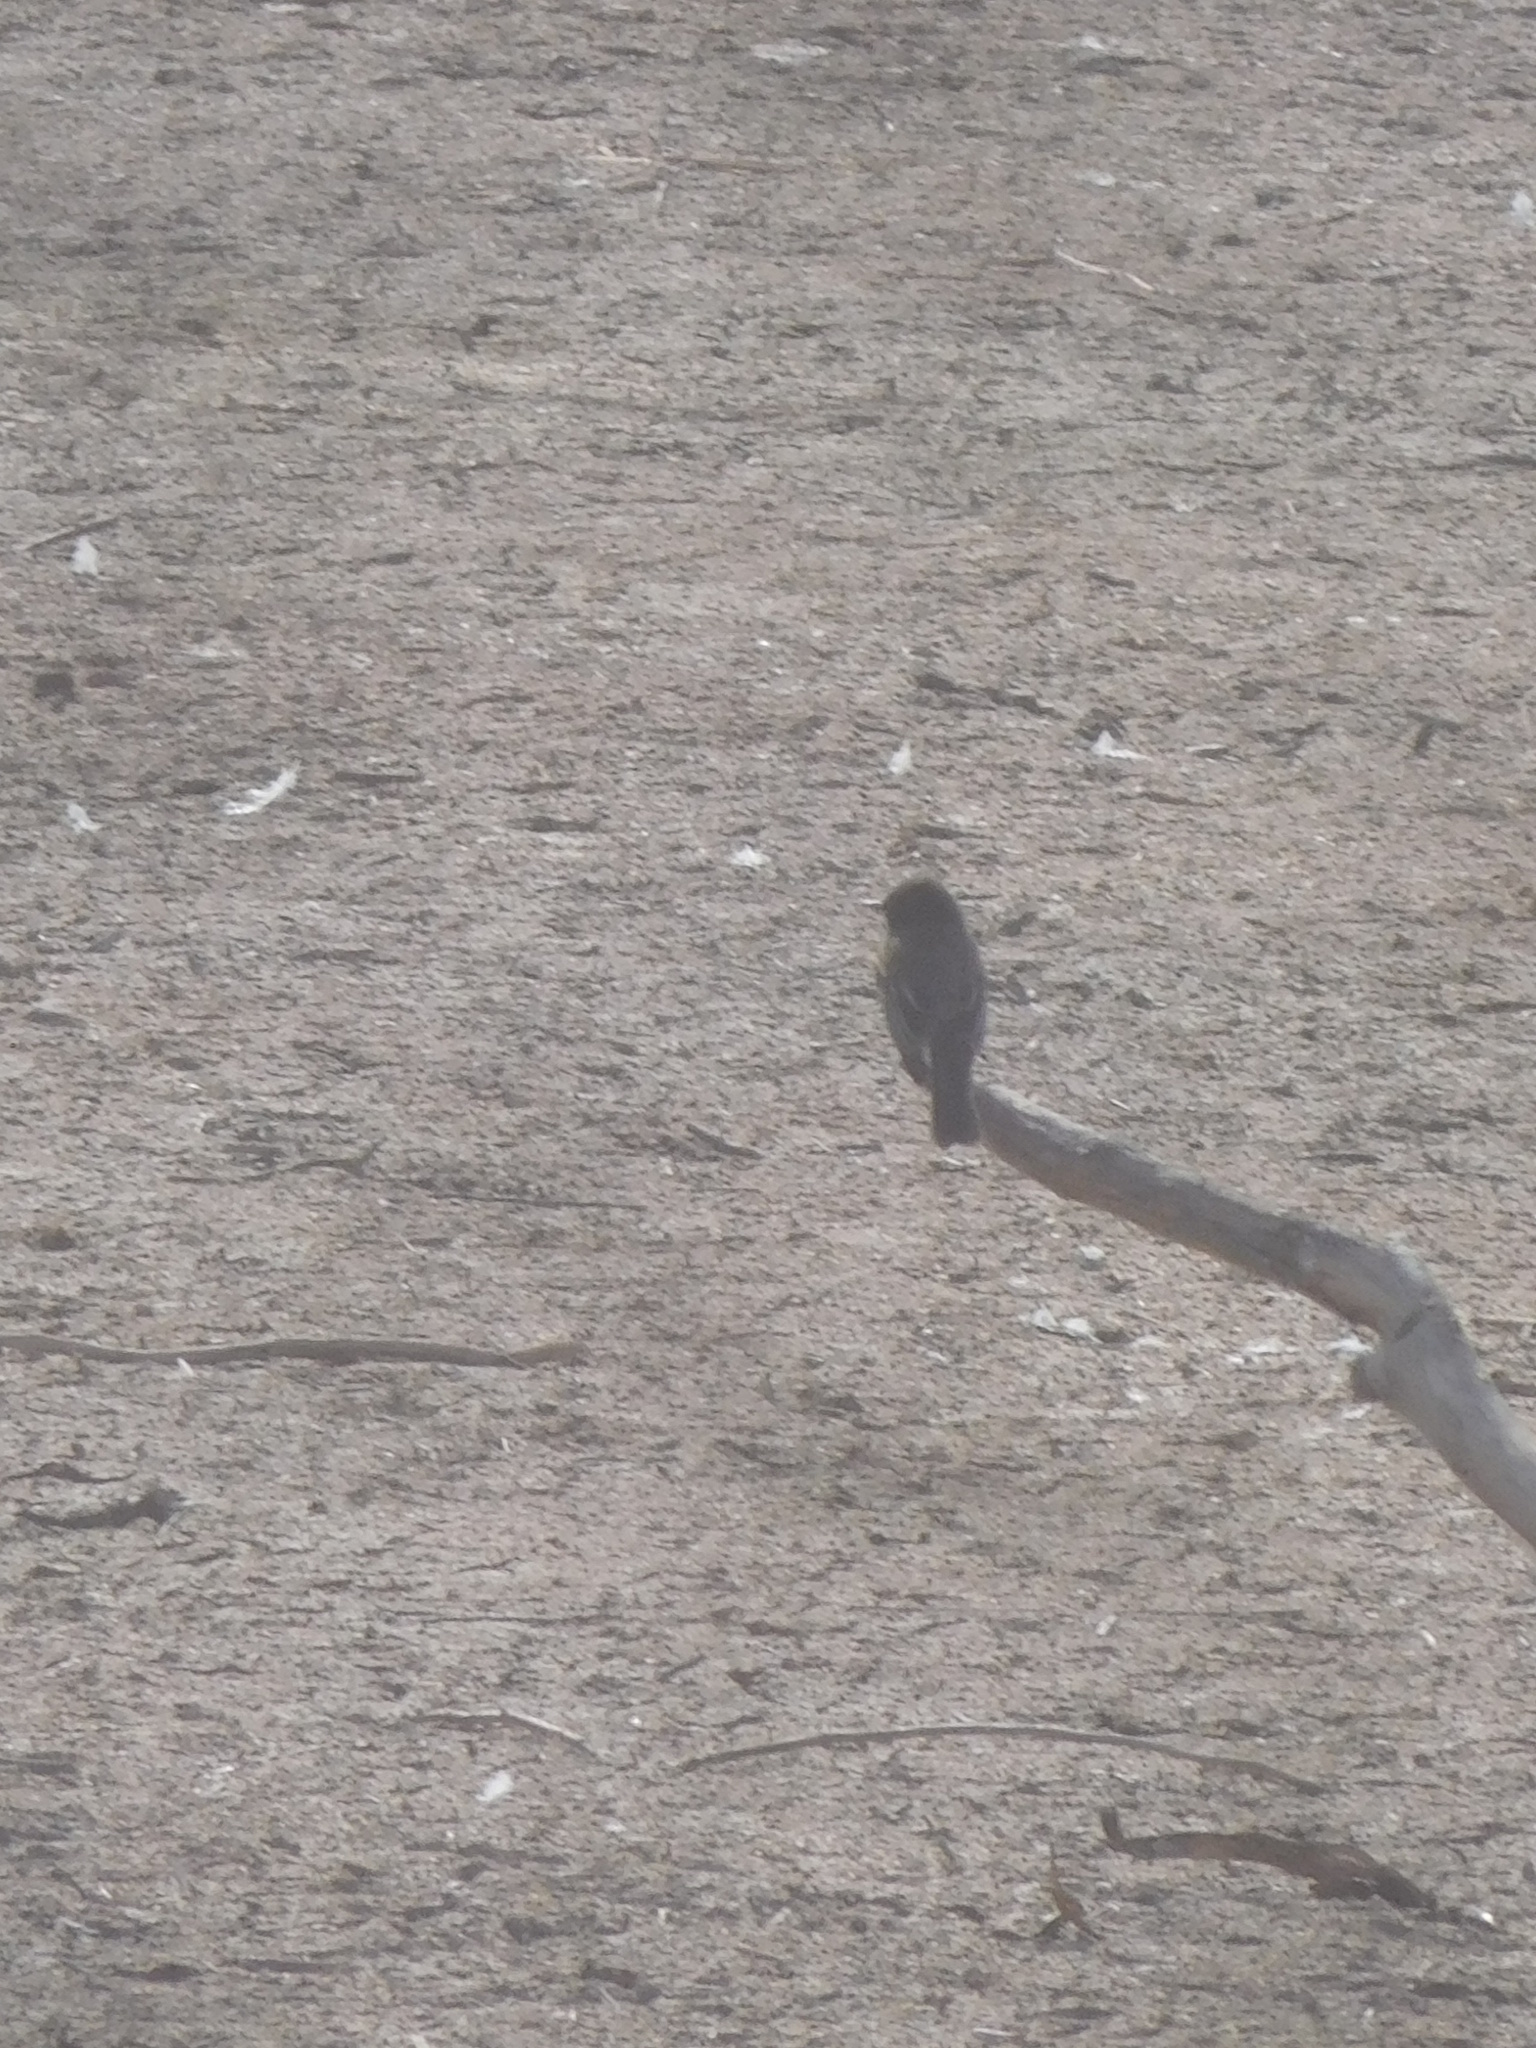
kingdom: Animalia
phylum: Chordata
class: Aves
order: Passeriformes
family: Tyrannidae
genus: Sayornis
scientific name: Sayornis nigricans
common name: Black phoebe
